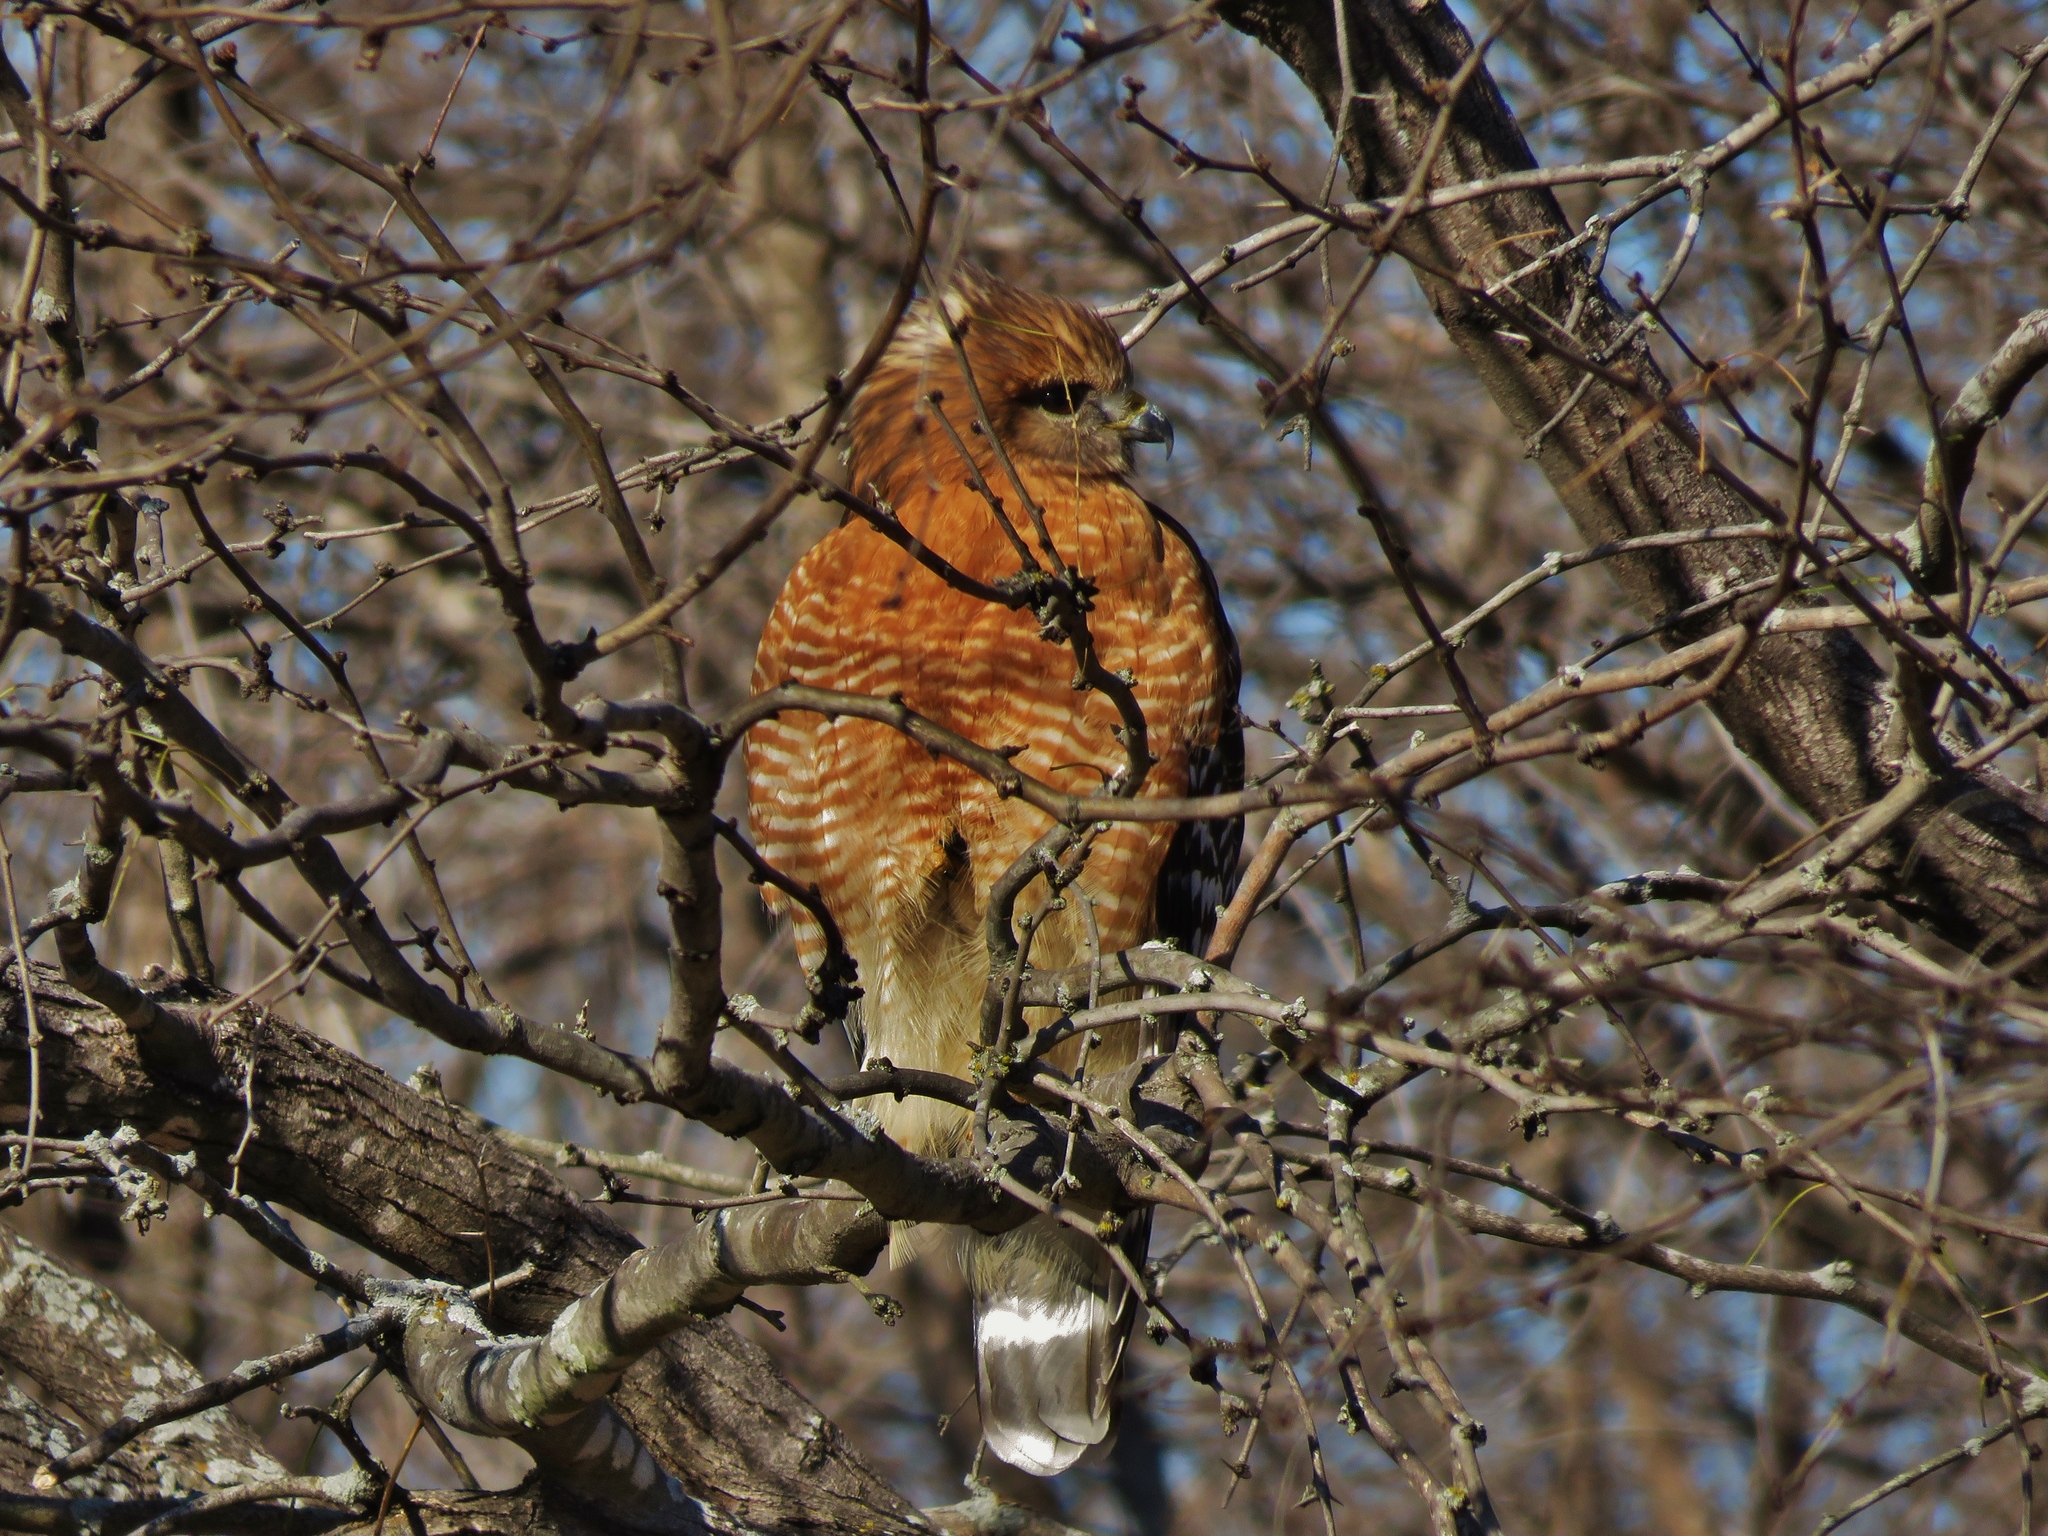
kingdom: Animalia
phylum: Chordata
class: Aves
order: Accipitriformes
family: Accipitridae
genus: Buteo
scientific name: Buteo lineatus
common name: Red-shouldered hawk
